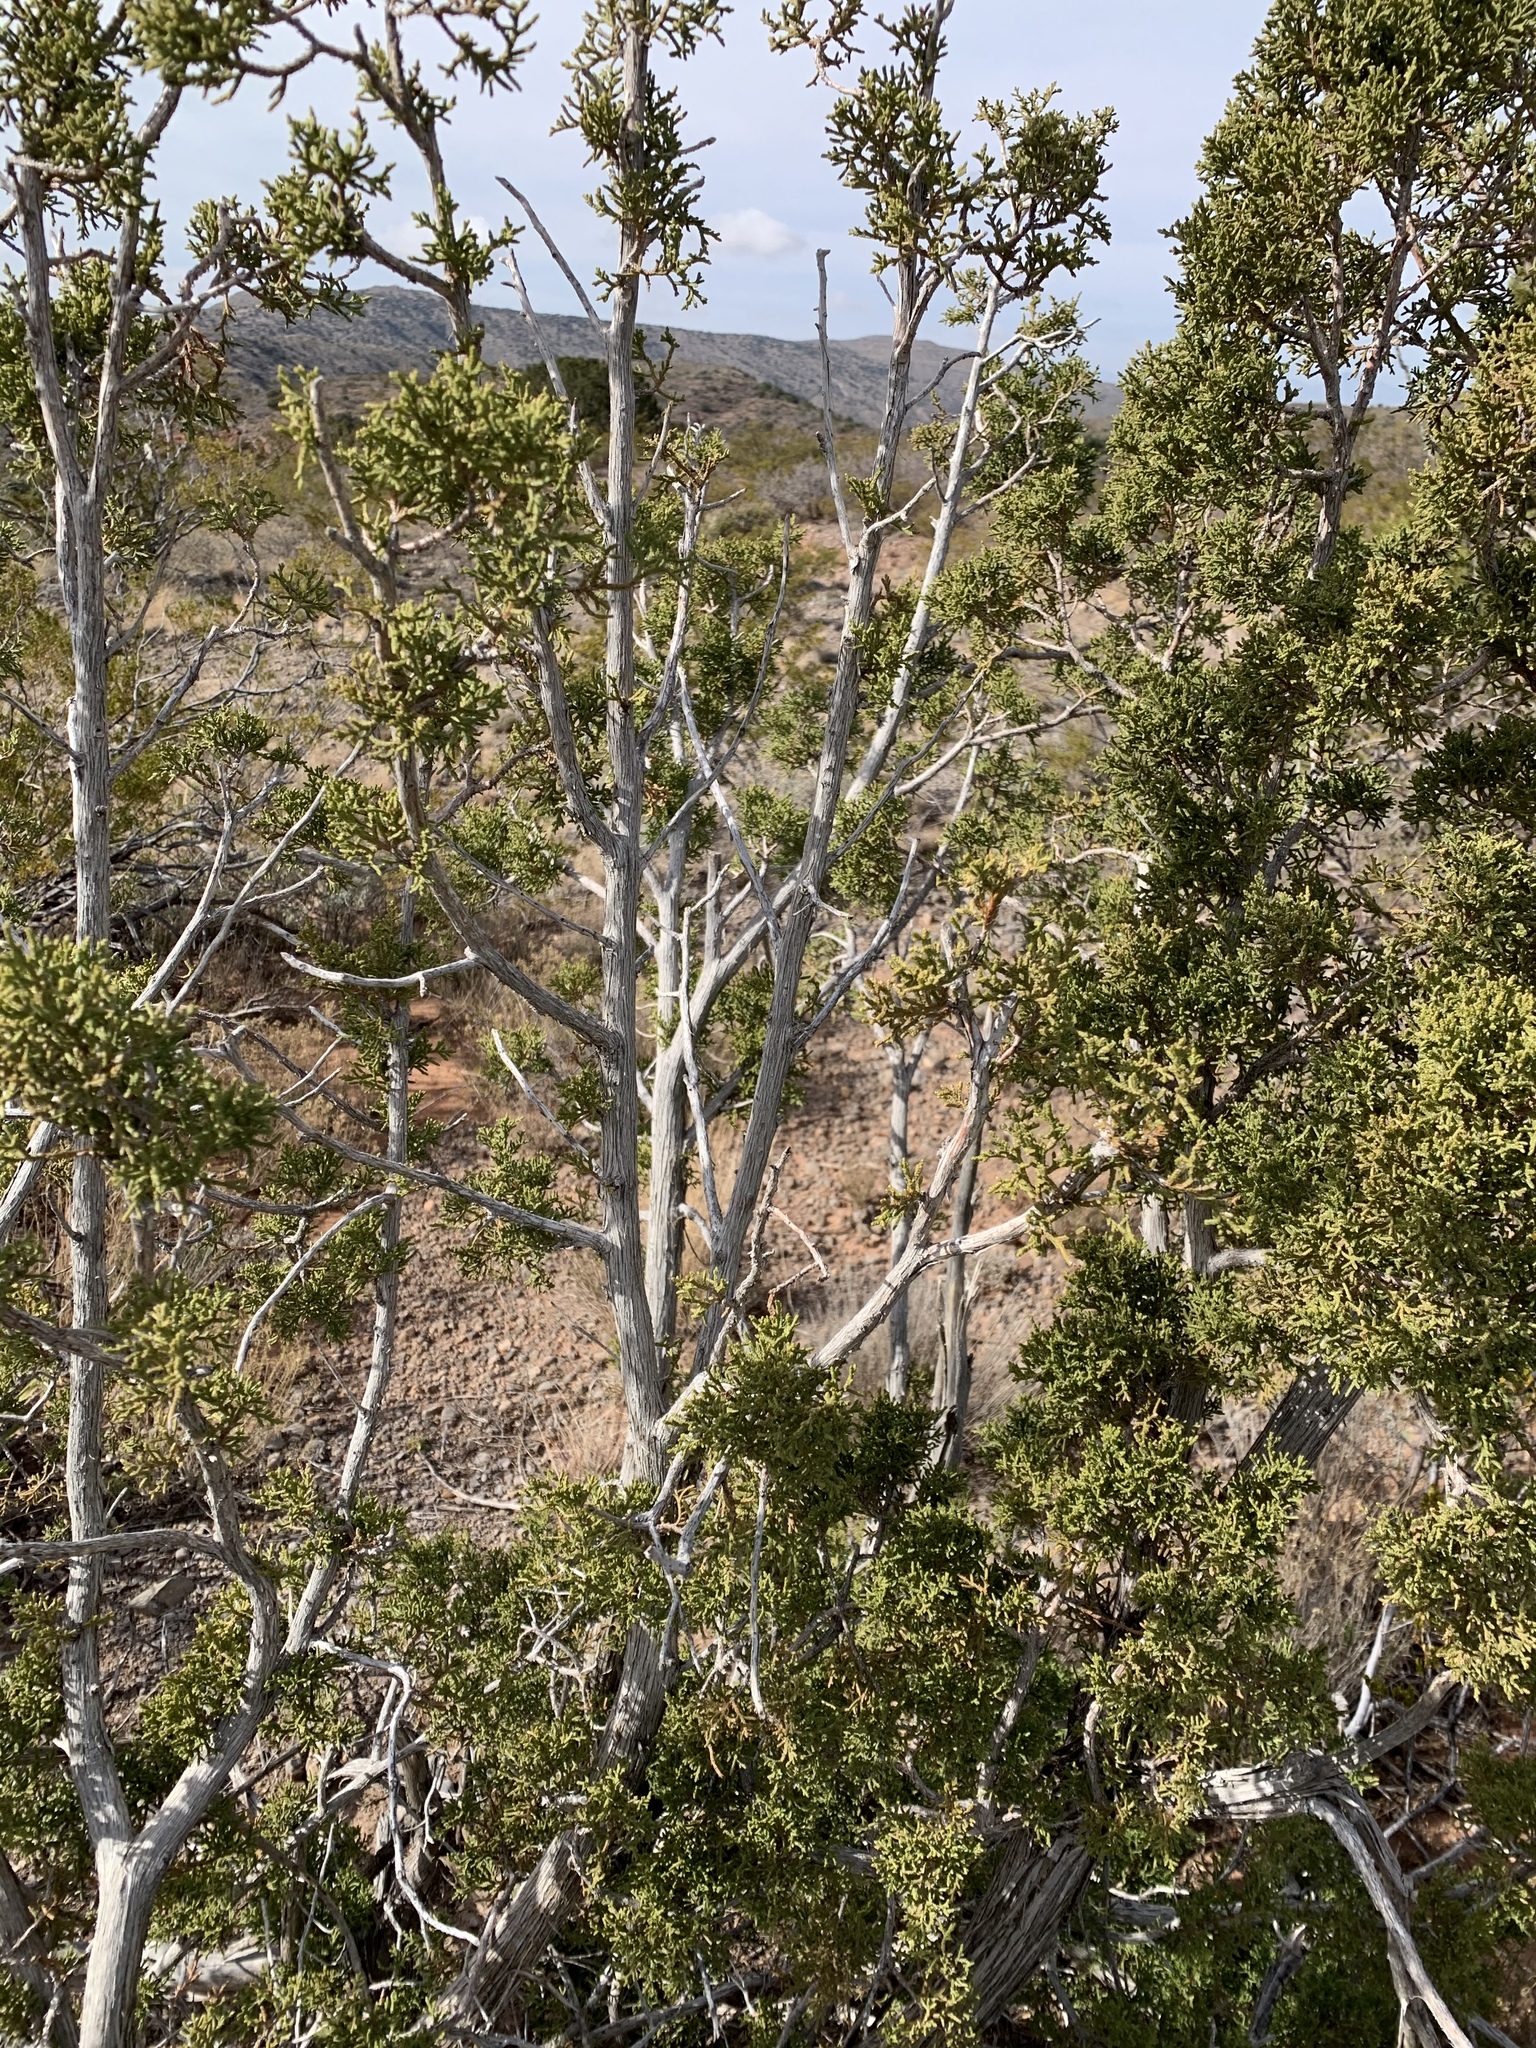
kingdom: Plantae
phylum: Tracheophyta
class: Pinopsida
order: Pinales
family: Cupressaceae
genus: Juniperus
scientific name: Juniperus monosperma
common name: One-seed juniper
